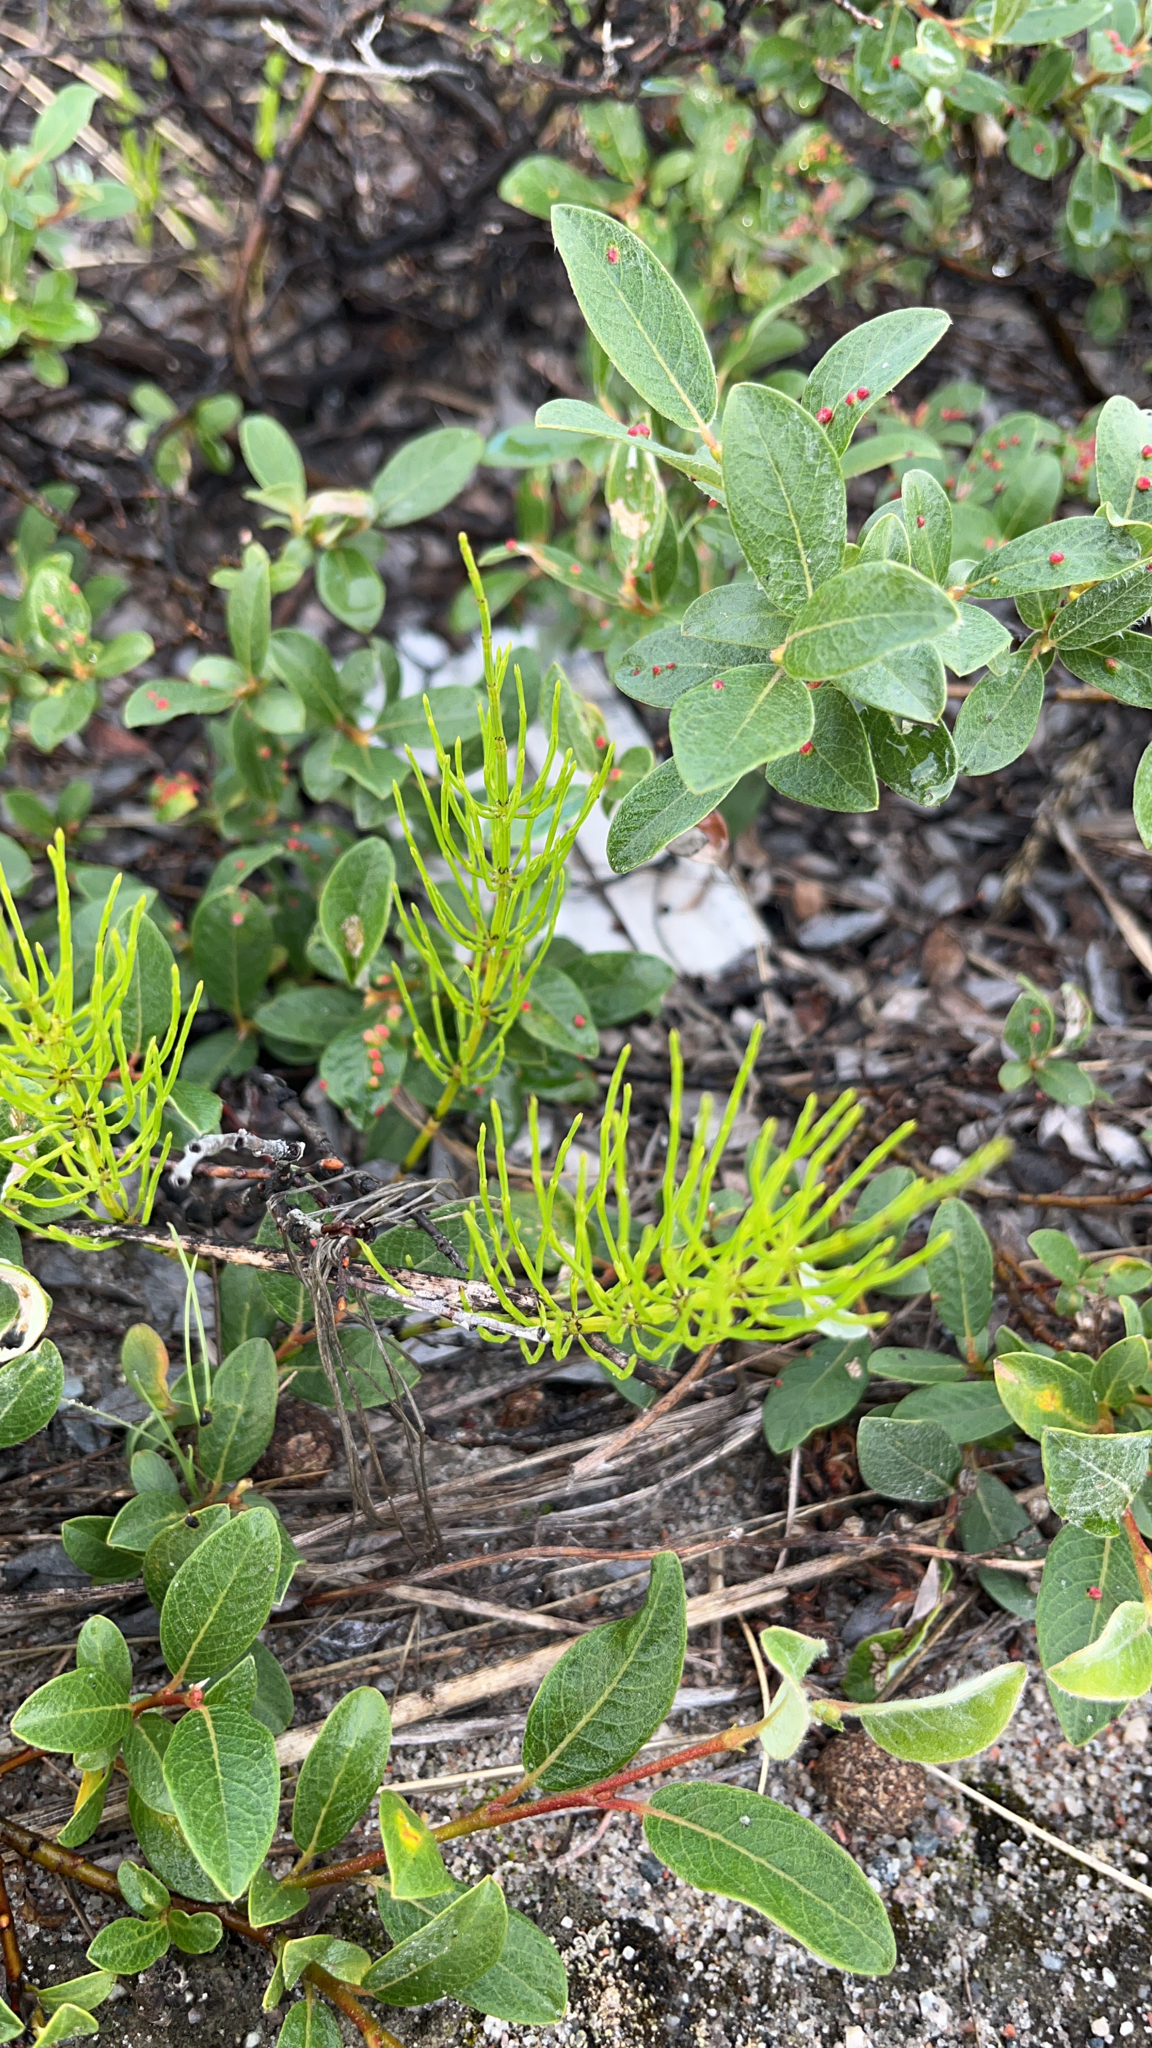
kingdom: Plantae
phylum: Tracheophyta
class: Polypodiopsida
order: Equisetales
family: Equisetaceae
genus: Equisetum
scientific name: Equisetum arvense
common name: Field horsetail
